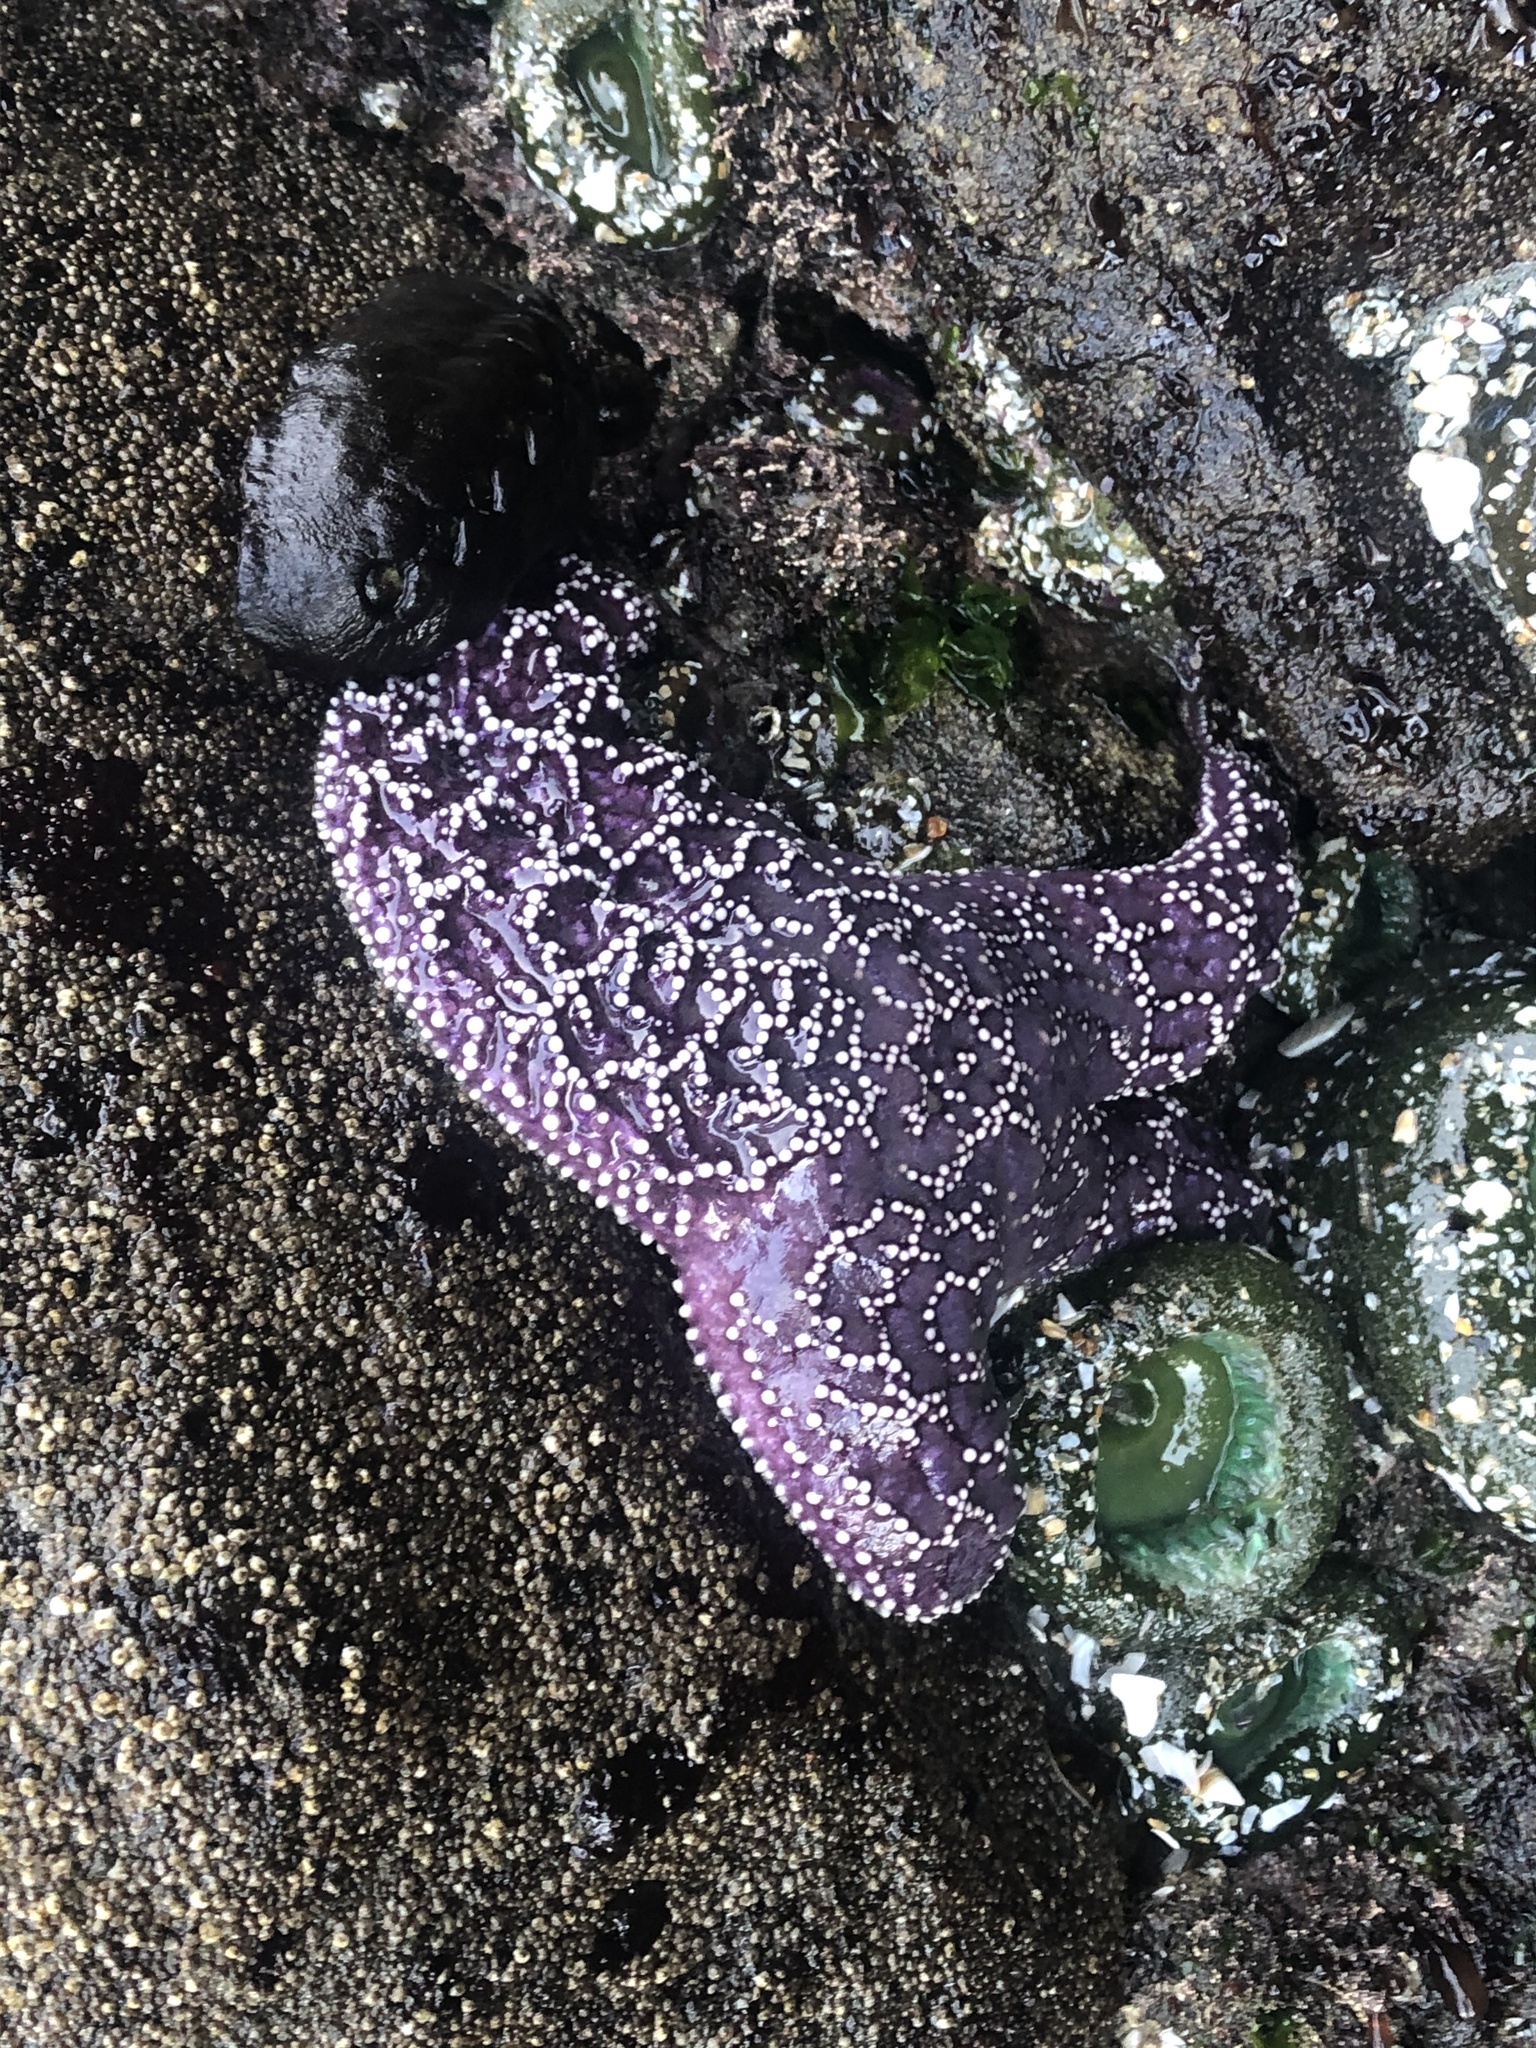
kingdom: Animalia
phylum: Echinodermata
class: Asteroidea
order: Forcipulatida
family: Asteriidae
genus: Pisaster
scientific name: Pisaster ochraceus
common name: Ochre stars
